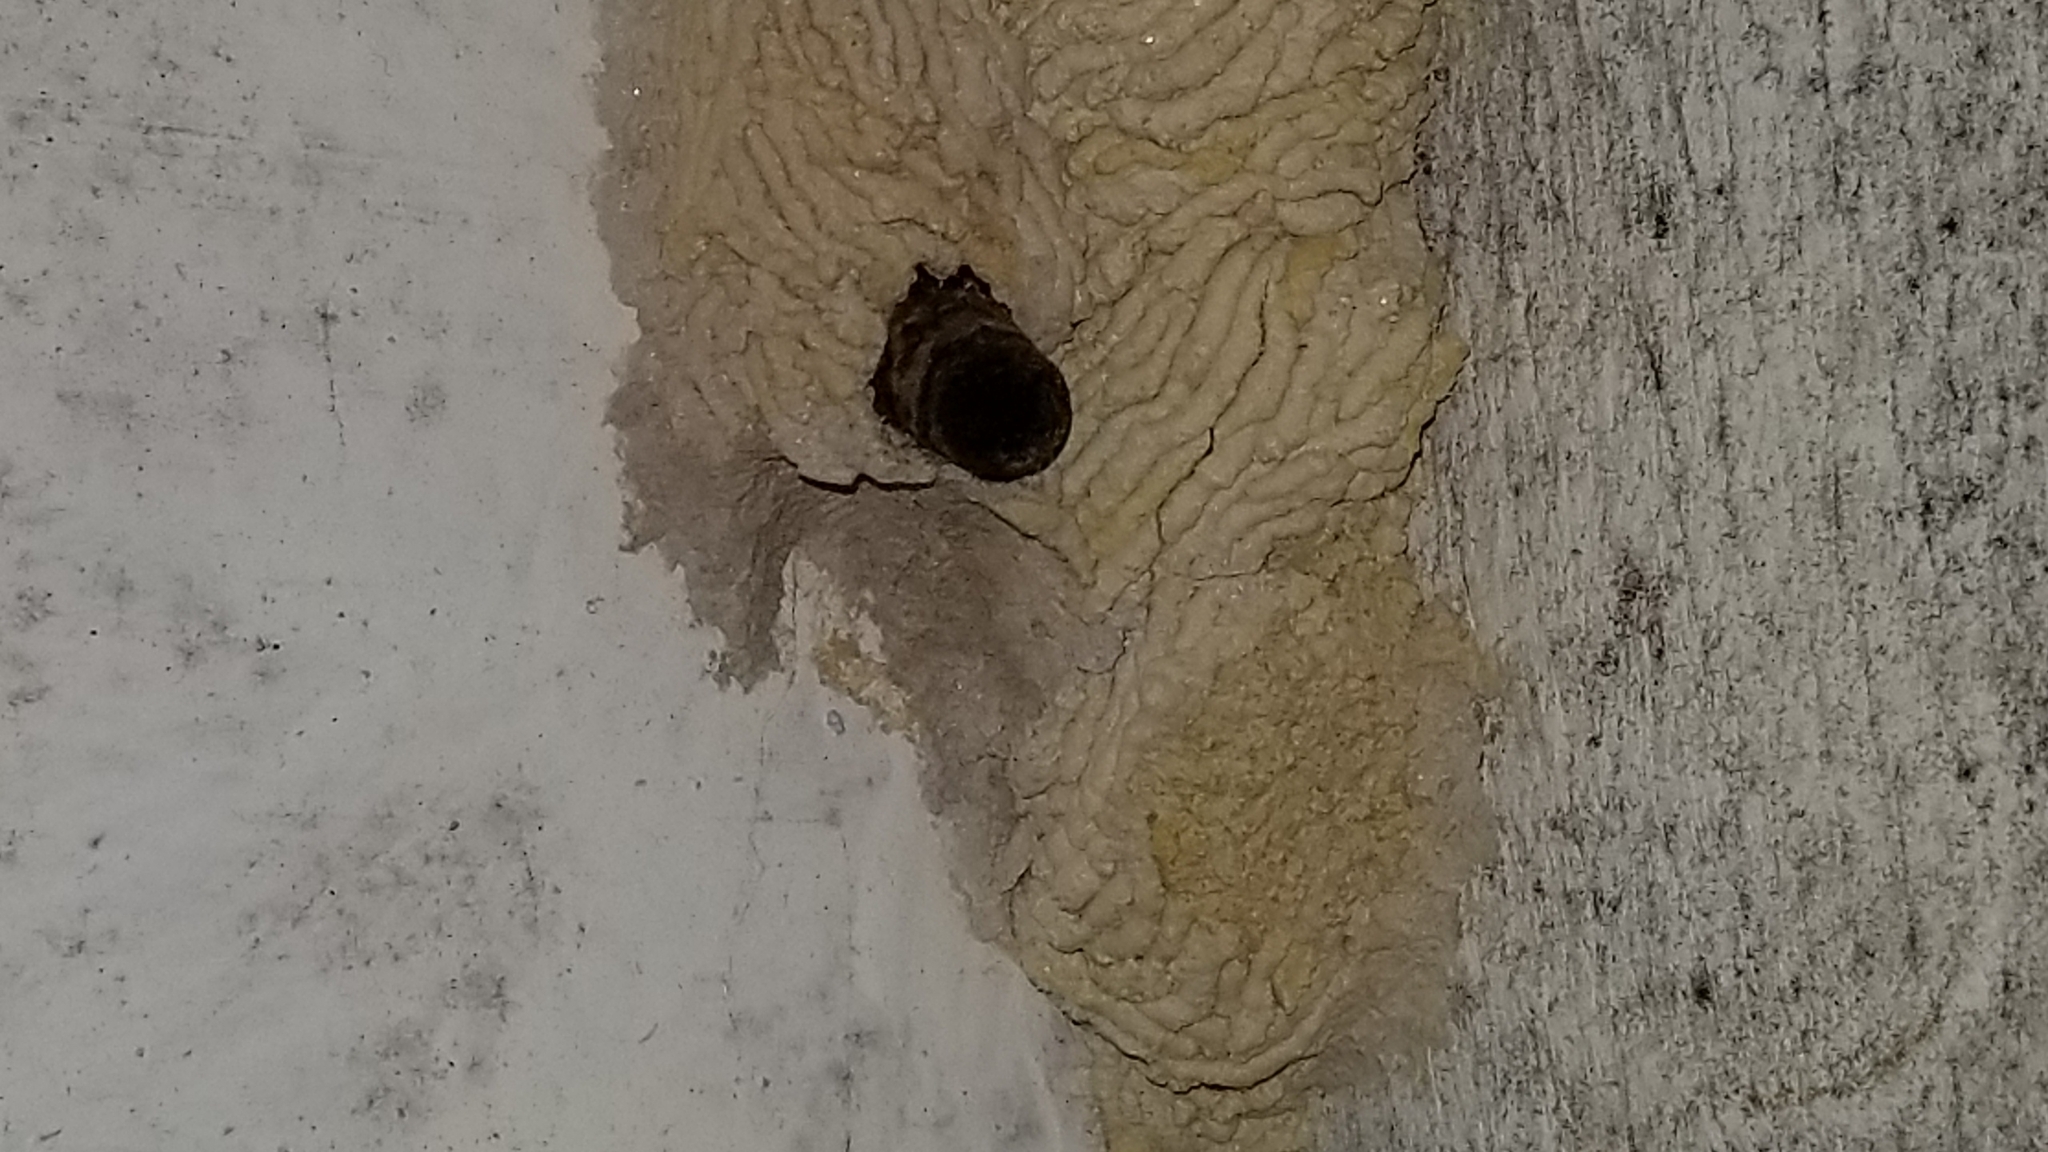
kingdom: Animalia
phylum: Arthropoda
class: Insecta
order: Hymenoptera
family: Crabronidae
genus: Pison
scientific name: Pison spinolae
